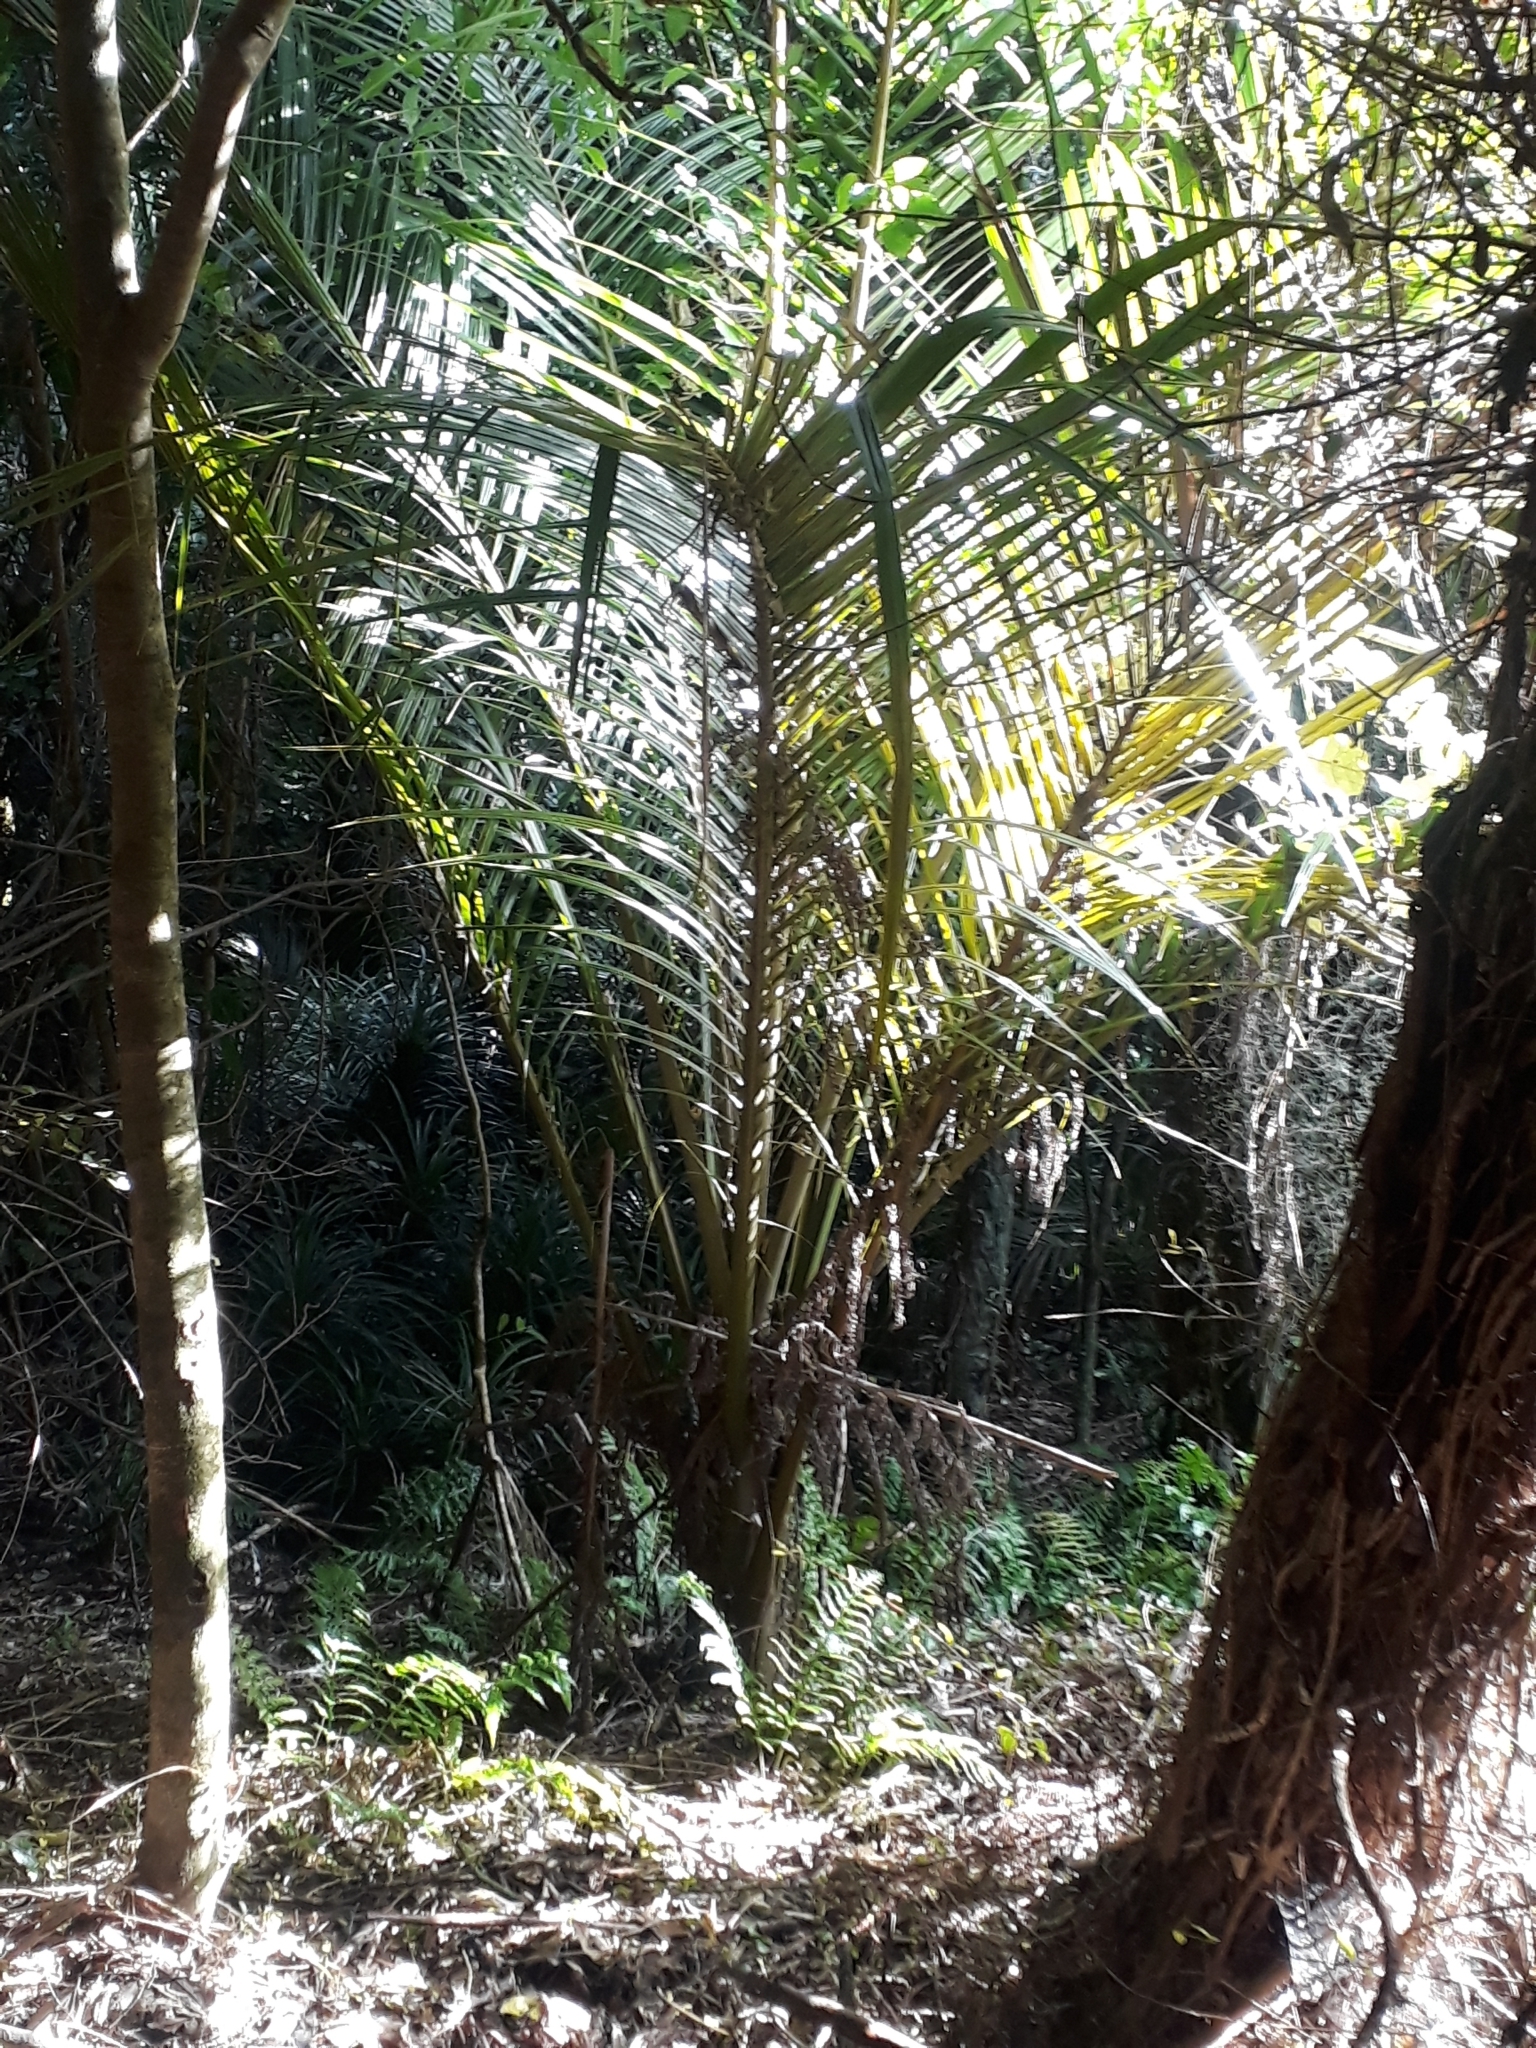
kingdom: Plantae
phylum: Tracheophyta
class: Liliopsida
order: Arecales
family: Arecaceae
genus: Rhopalostylis
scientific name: Rhopalostylis sapida
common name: Feather-duster palm
